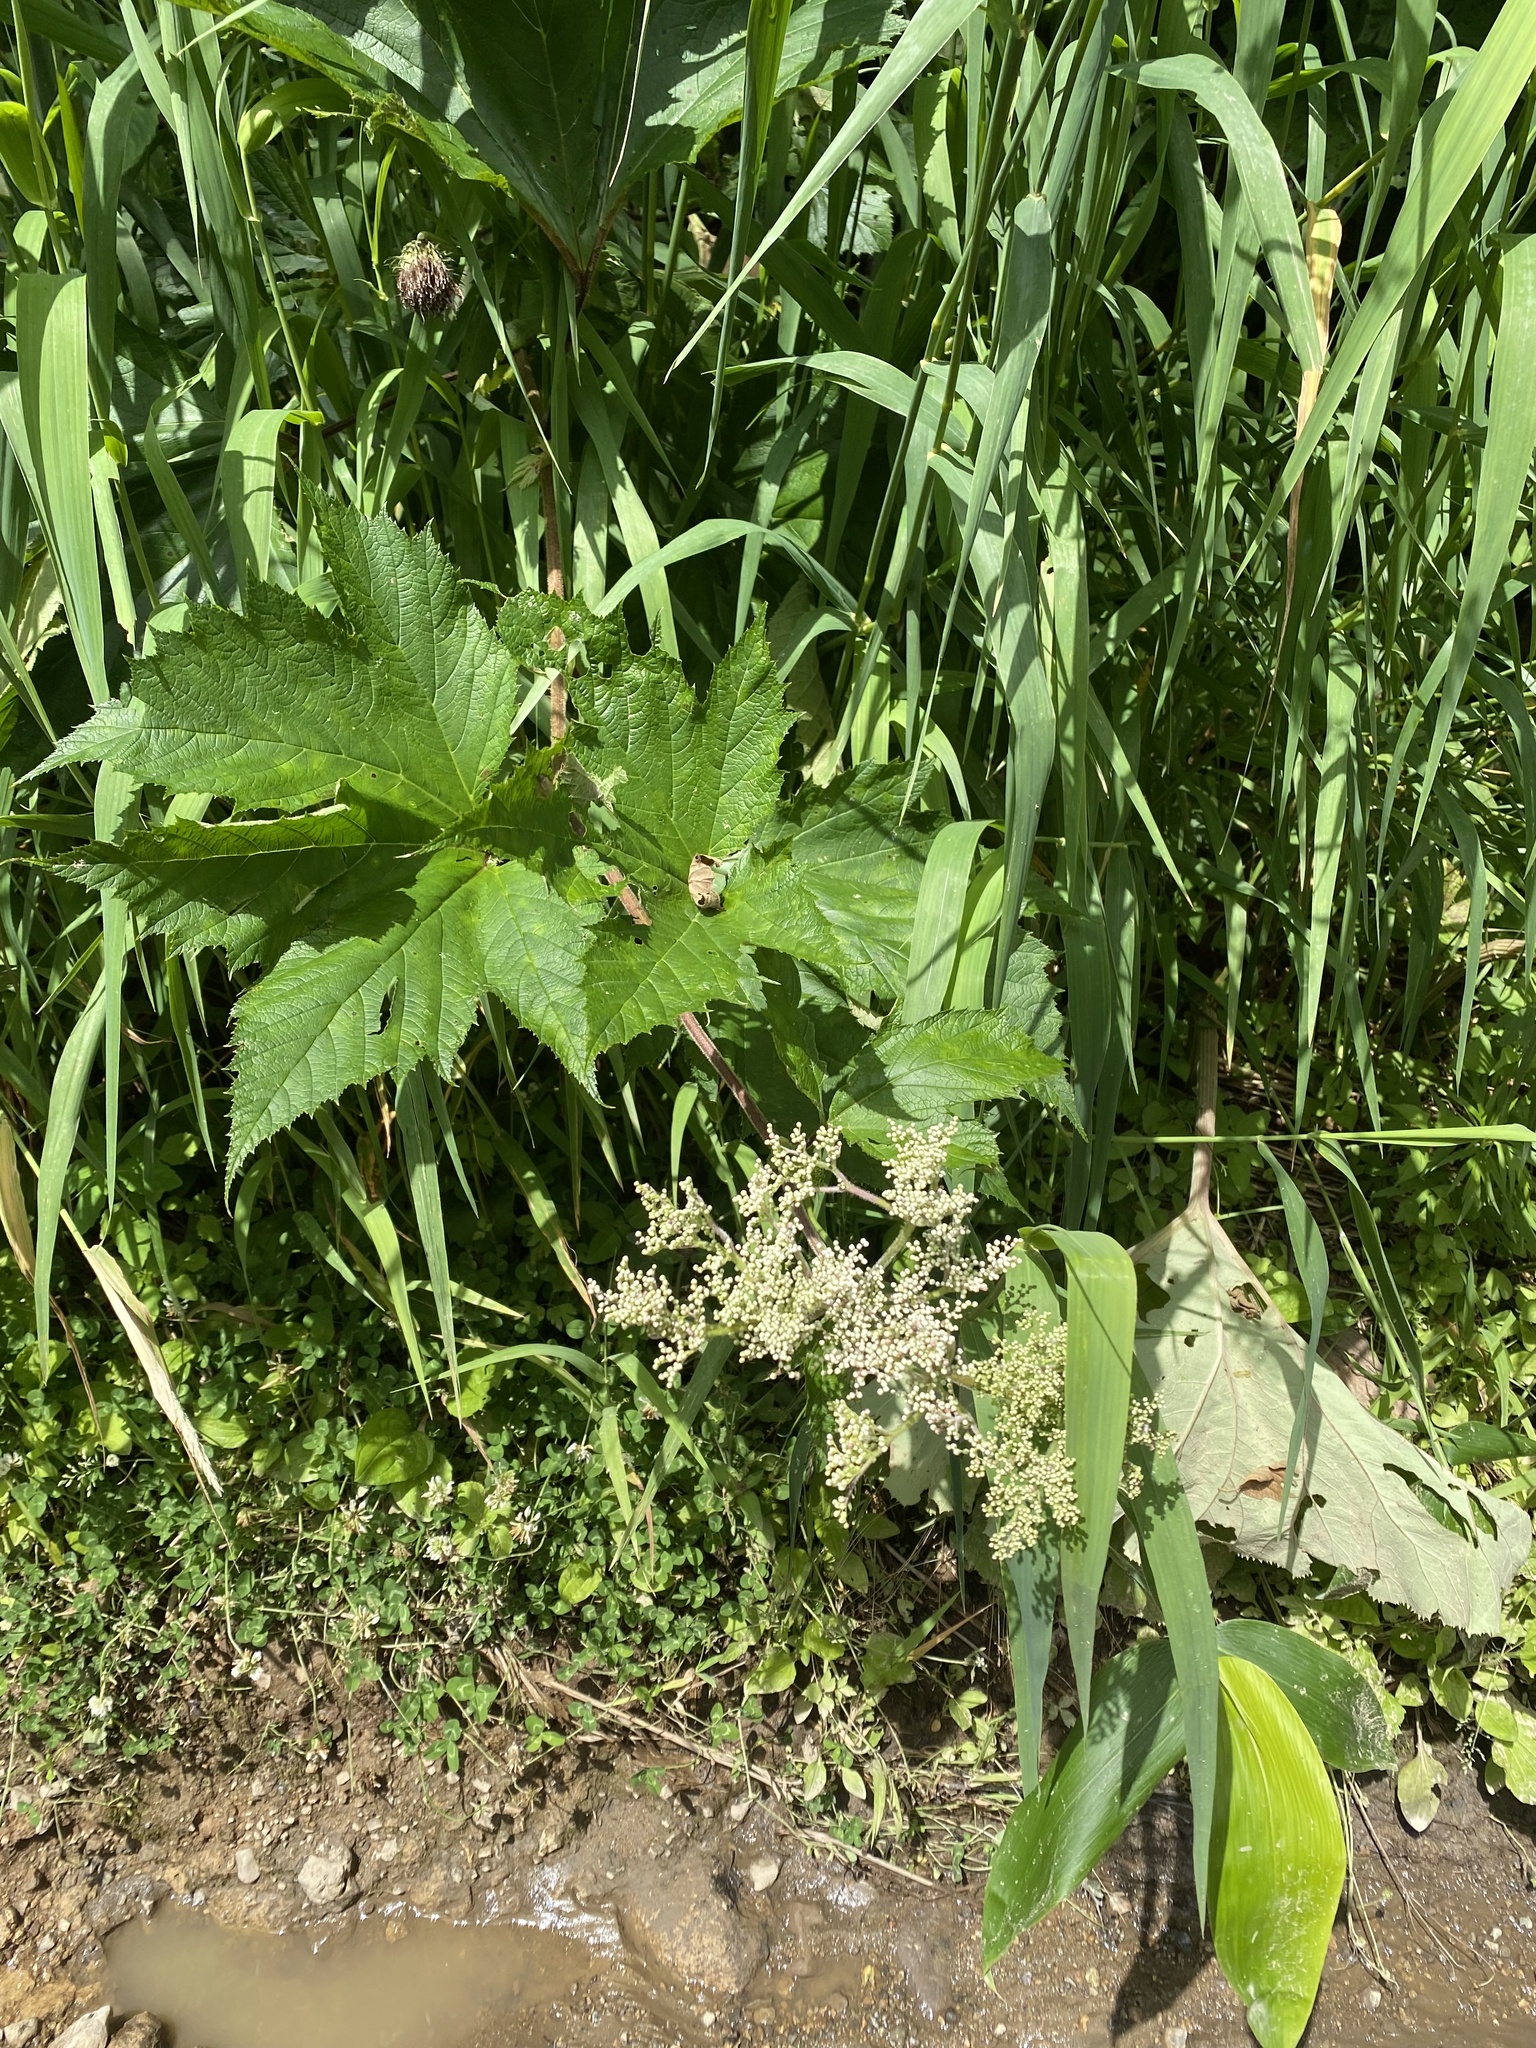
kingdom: Plantae
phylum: Tracheophyta
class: Magnoliopsida
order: Rosales
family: Rosaceae
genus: Filipendula
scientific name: Filipendula camtschatica
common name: Giant meadowsweet
